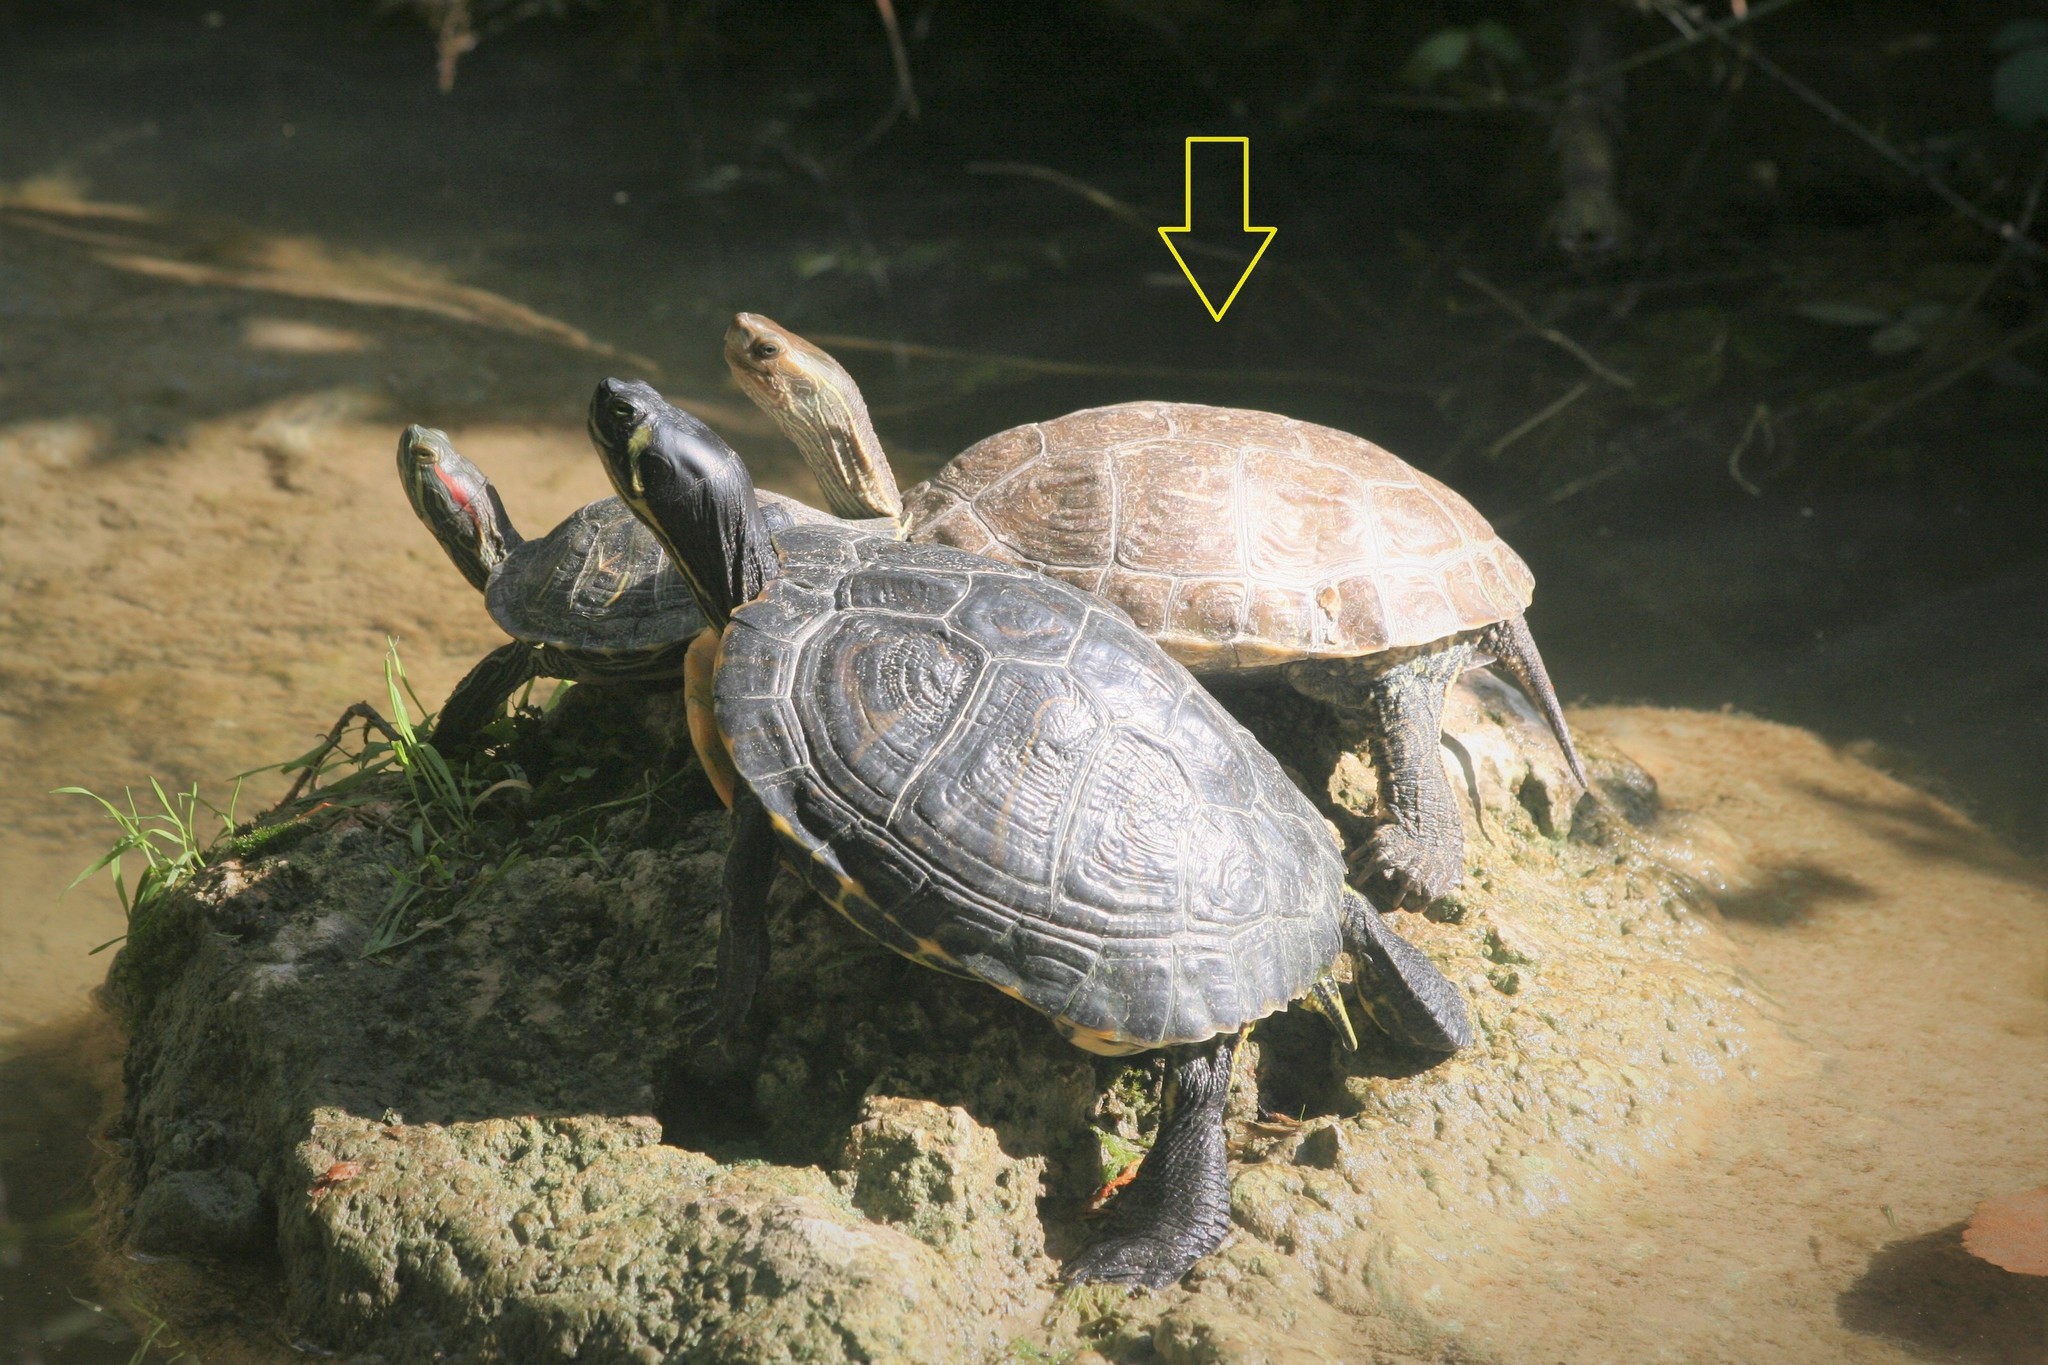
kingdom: Animalia
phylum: Chordata
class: Testudines
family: Geoemydidae
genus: Mauremys
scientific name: Mauremys rivulata
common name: Western caspian turtle
